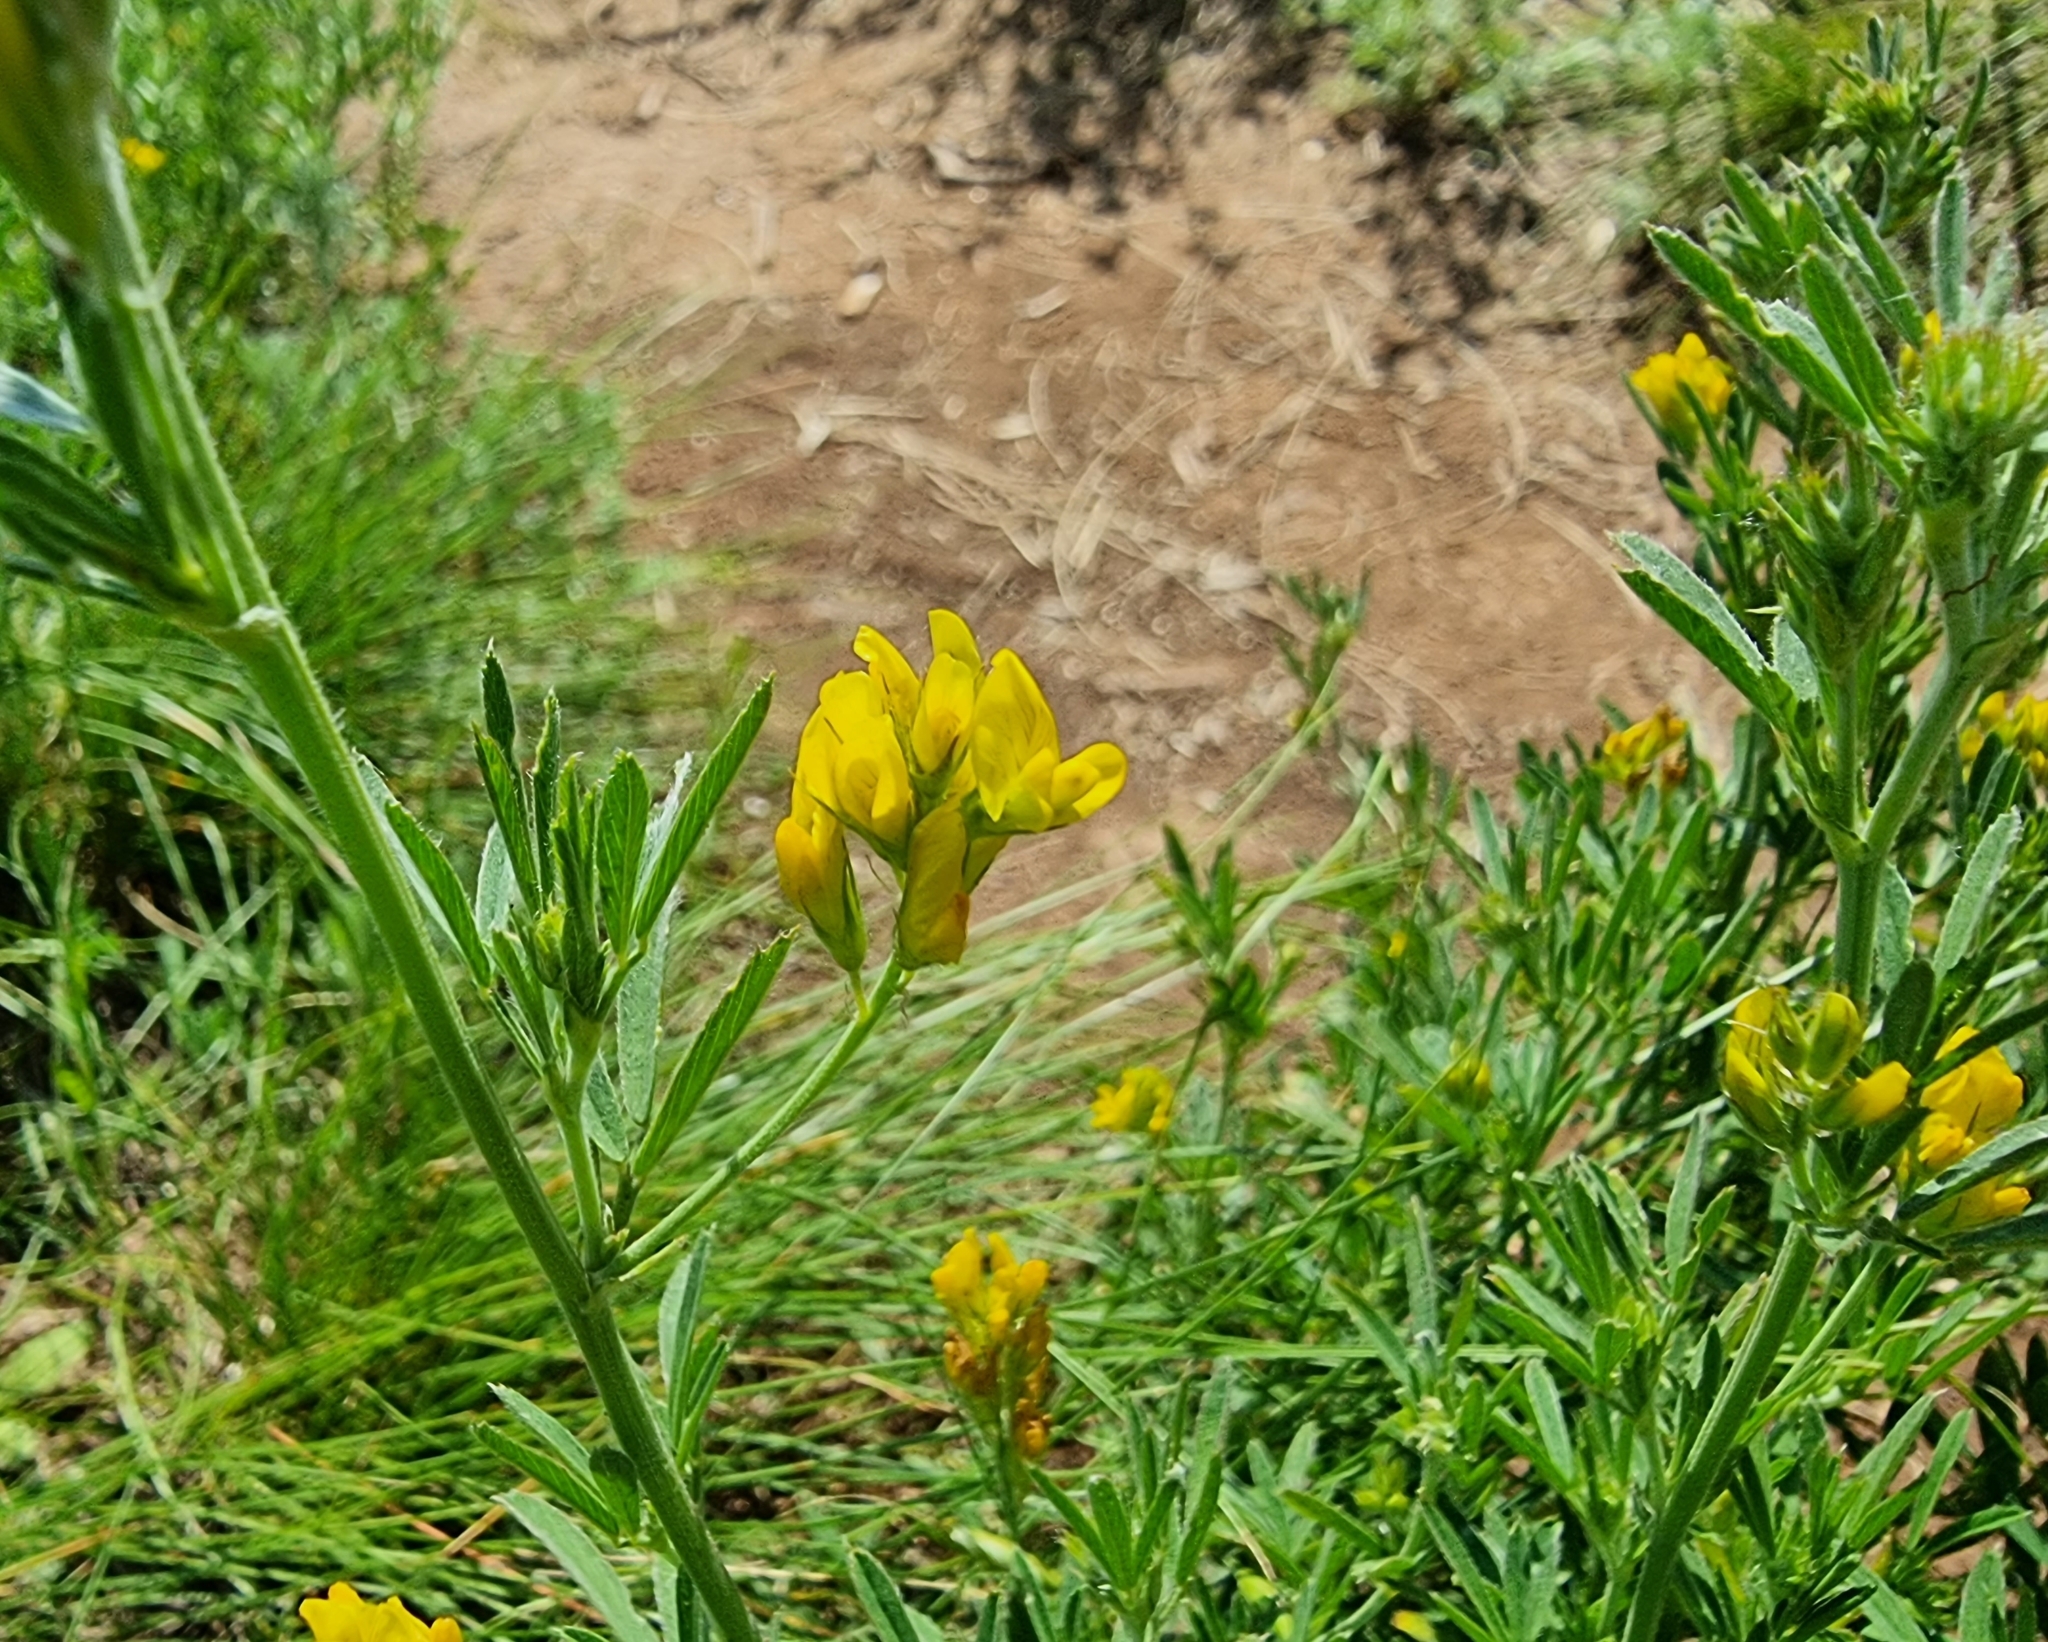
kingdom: Plantae
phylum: Tracheophyta
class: Magnoliopsida
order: Fabales
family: Fabaceae
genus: Medicago
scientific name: Medicago falcata
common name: Sickle medick
